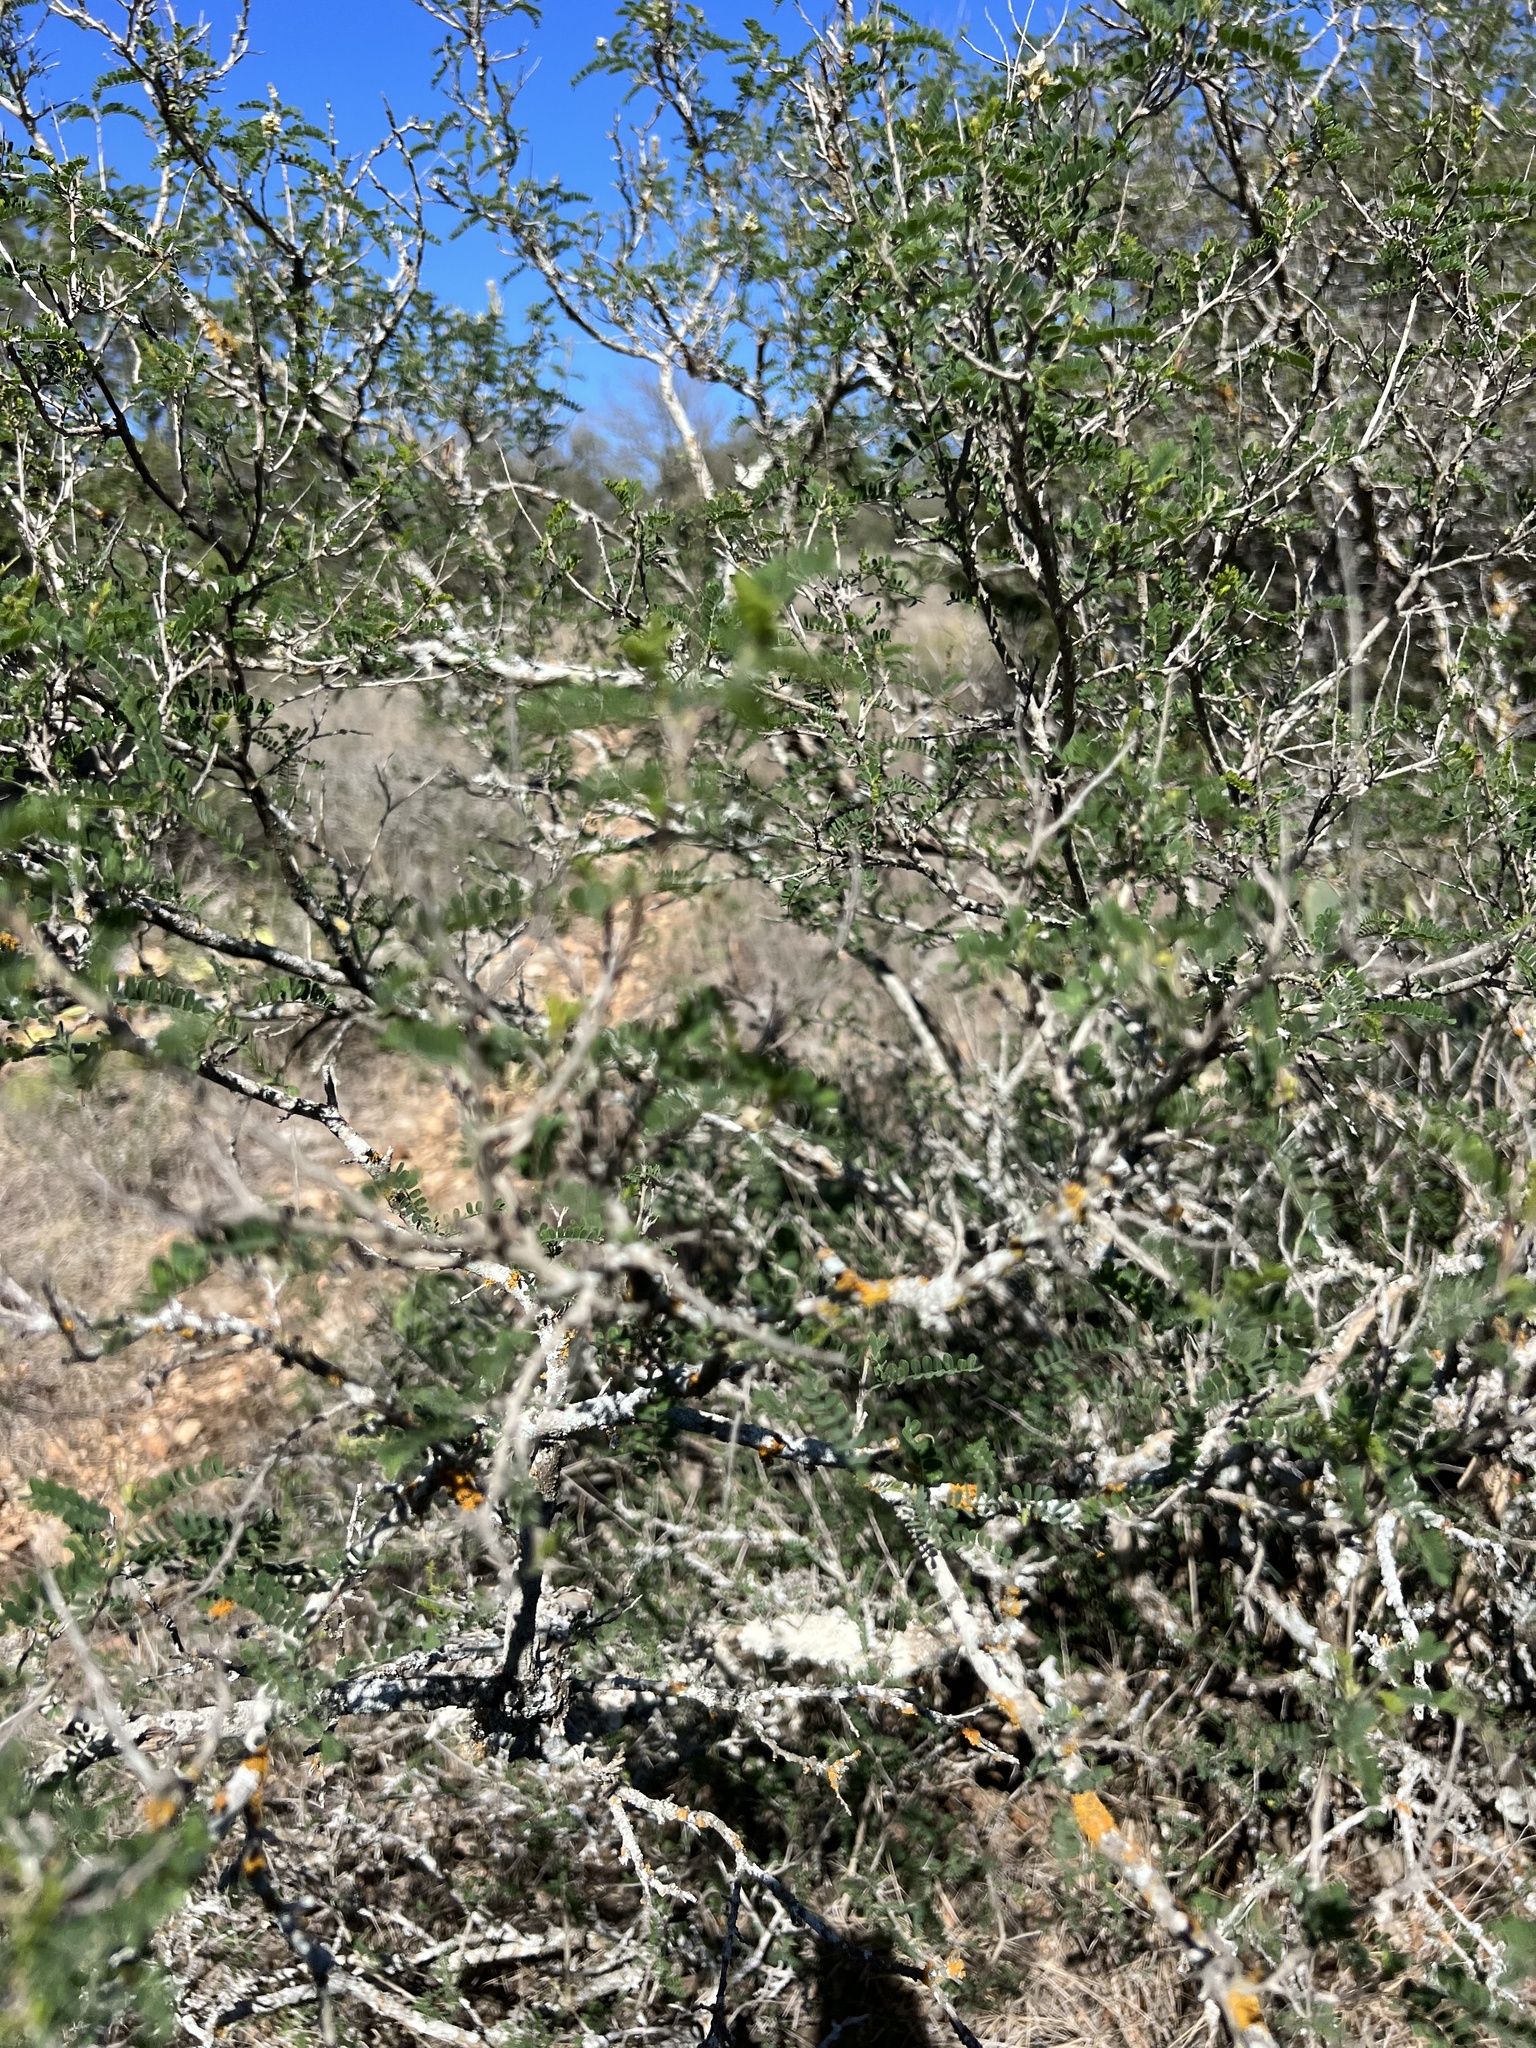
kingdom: Plantae
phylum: Tracheophyta
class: Magnoliopsida
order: Fabales
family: Fabaceae
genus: Eysenhardtia
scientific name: Eysenhardtia texana
